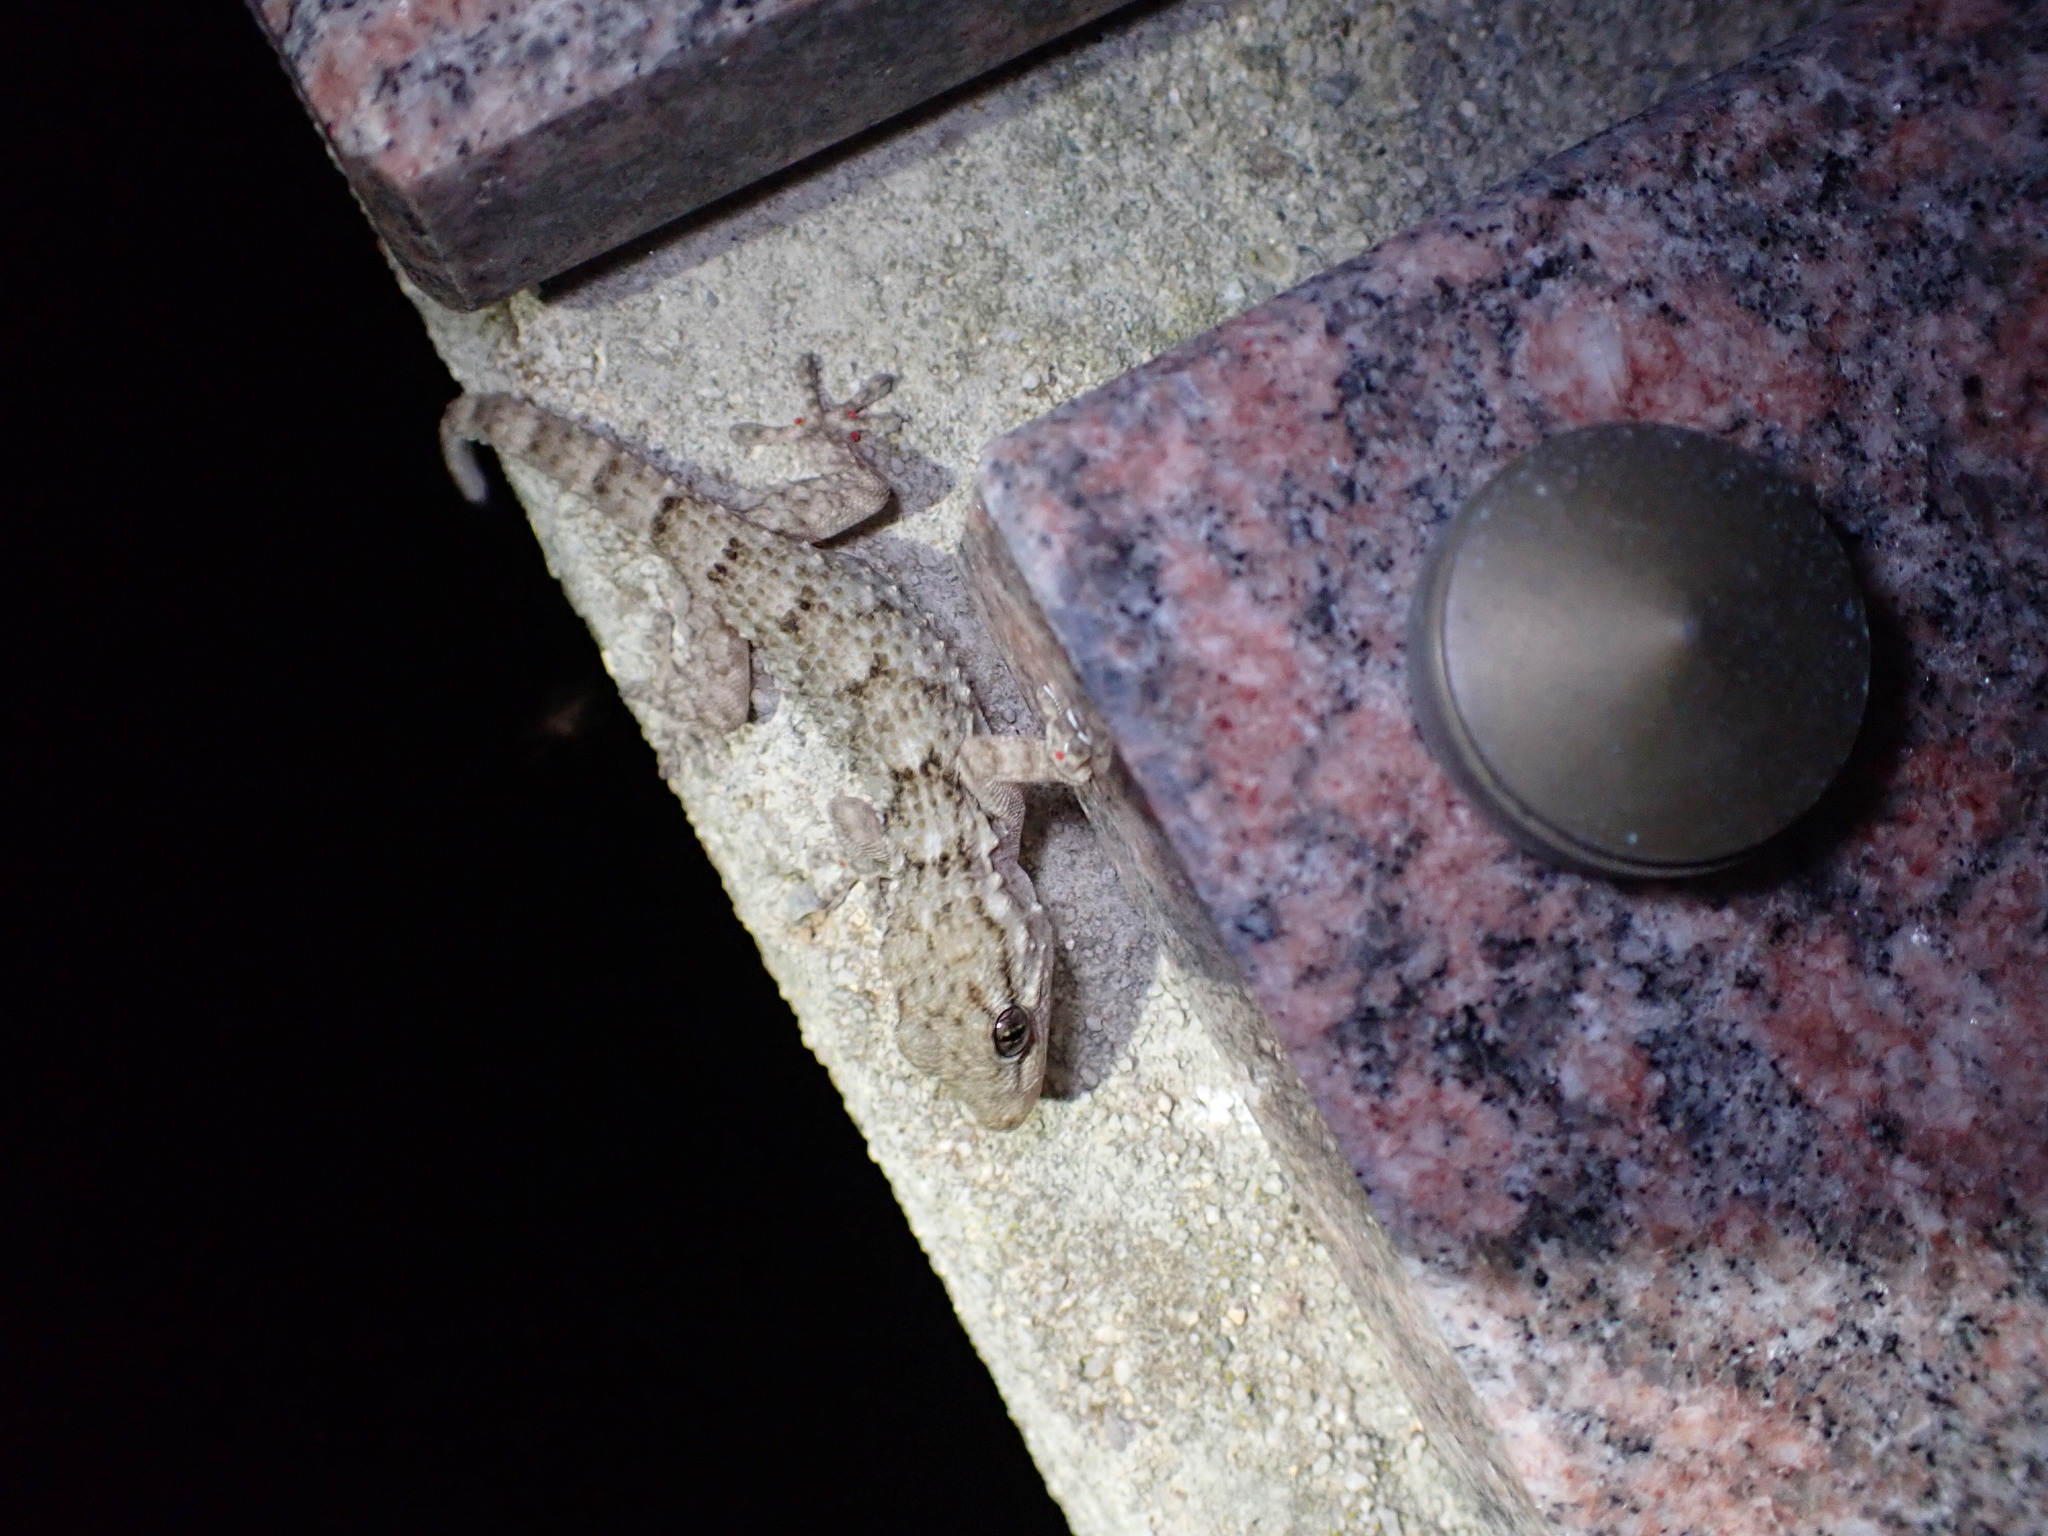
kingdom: Animalia
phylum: Chordata
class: Squamata
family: Phyllodactylidae
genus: Tarentola
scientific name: Tarentola mauritanica
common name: Moorish gecko
